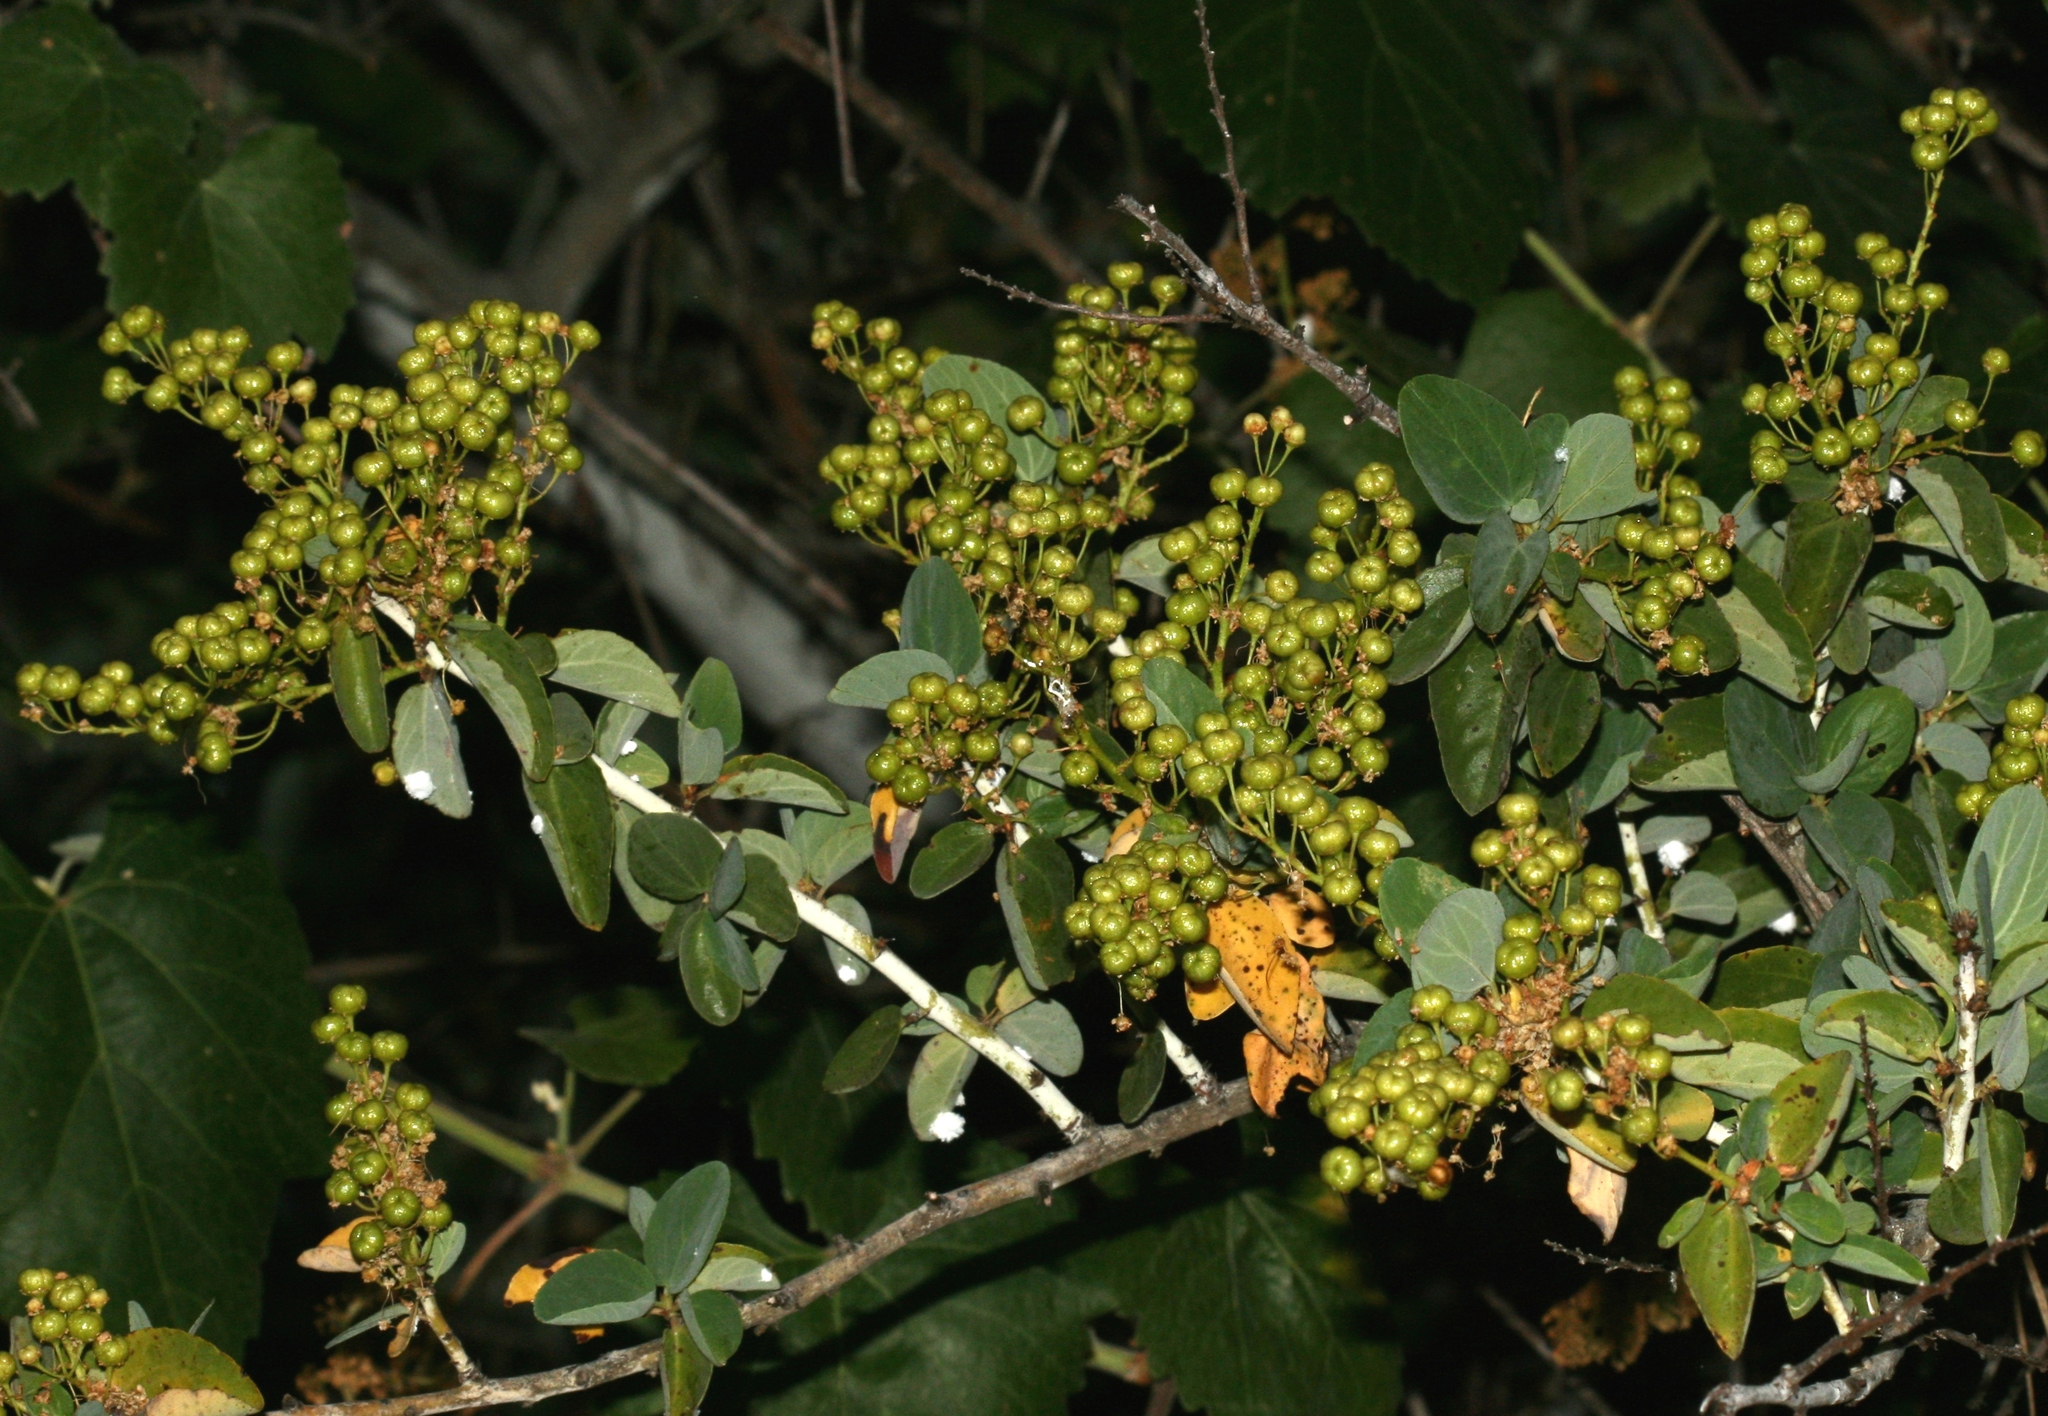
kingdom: Plantae
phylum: Tracheophyta
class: Magnoliopsida
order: Rosales
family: Rhamnaceae
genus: Ceanothus
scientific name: Ceanothus leucodermis
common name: Chaparral whitethorn
